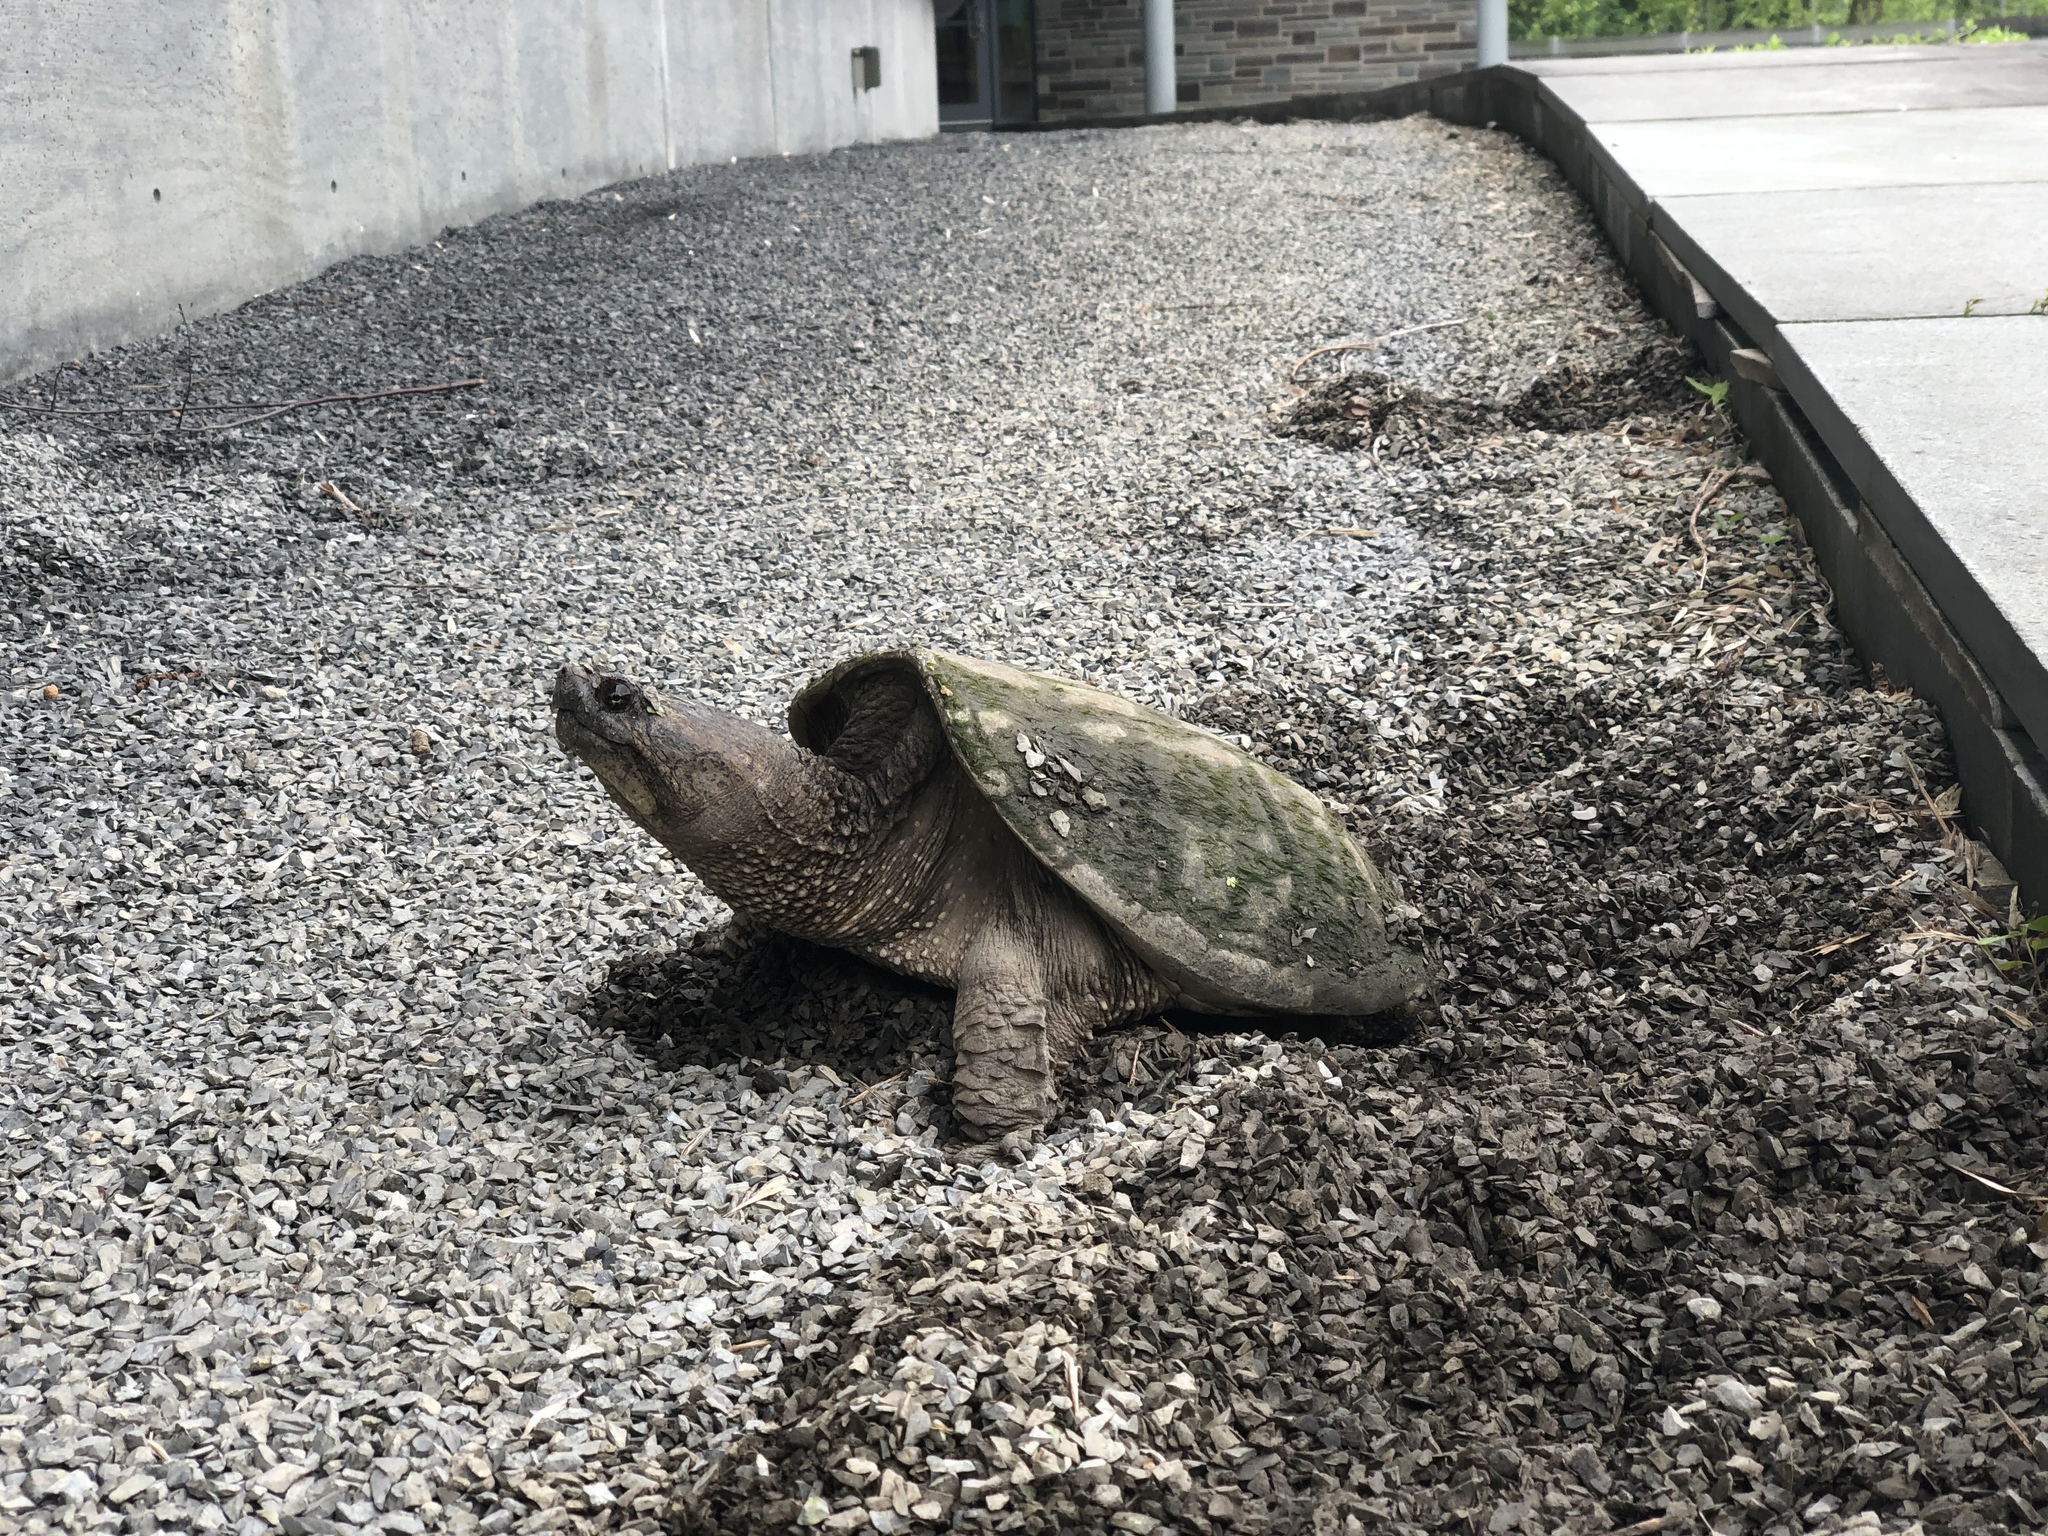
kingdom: Animalia
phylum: Chordata
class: Testudines
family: Chelydridae
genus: Chelydra
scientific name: Chelydra serpentina
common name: Common snapping turtle
